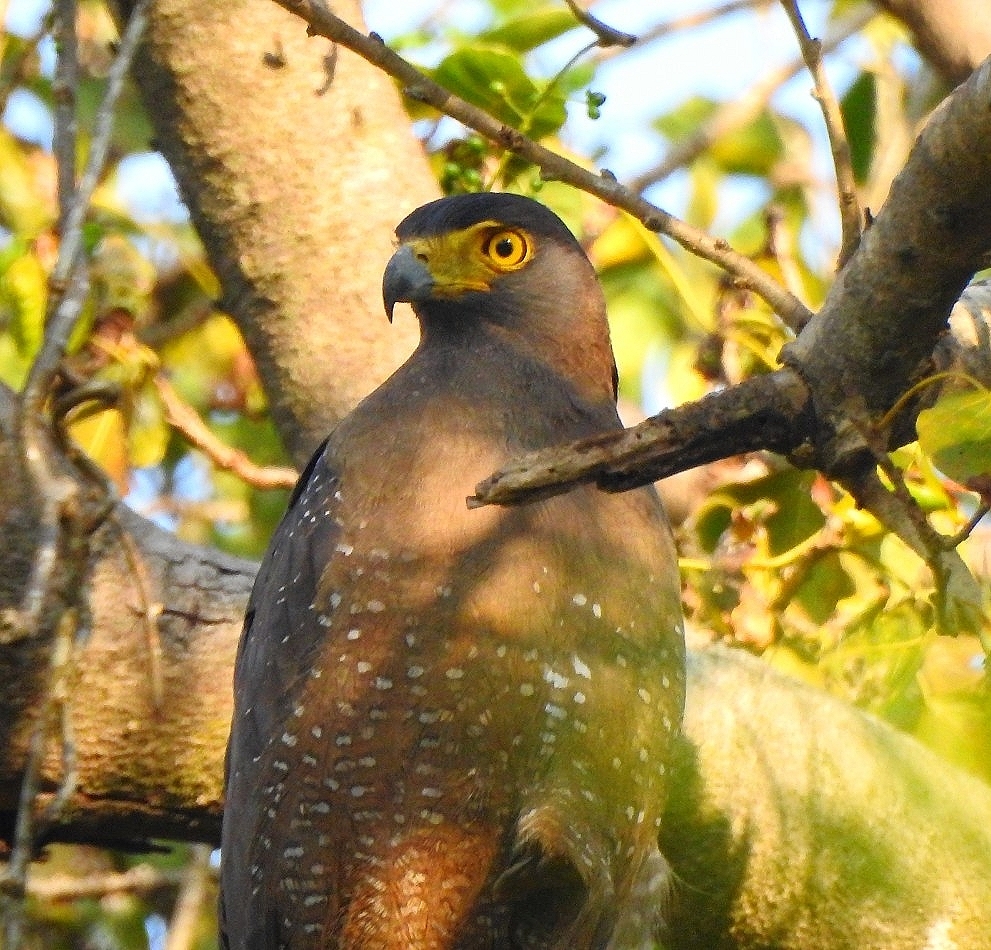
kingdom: Animalia
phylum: Chordata
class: Aves
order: Accipitriformes
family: Accipitridae
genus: Spilornis
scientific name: Spilornis cheela
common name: Crested serpent eagle
